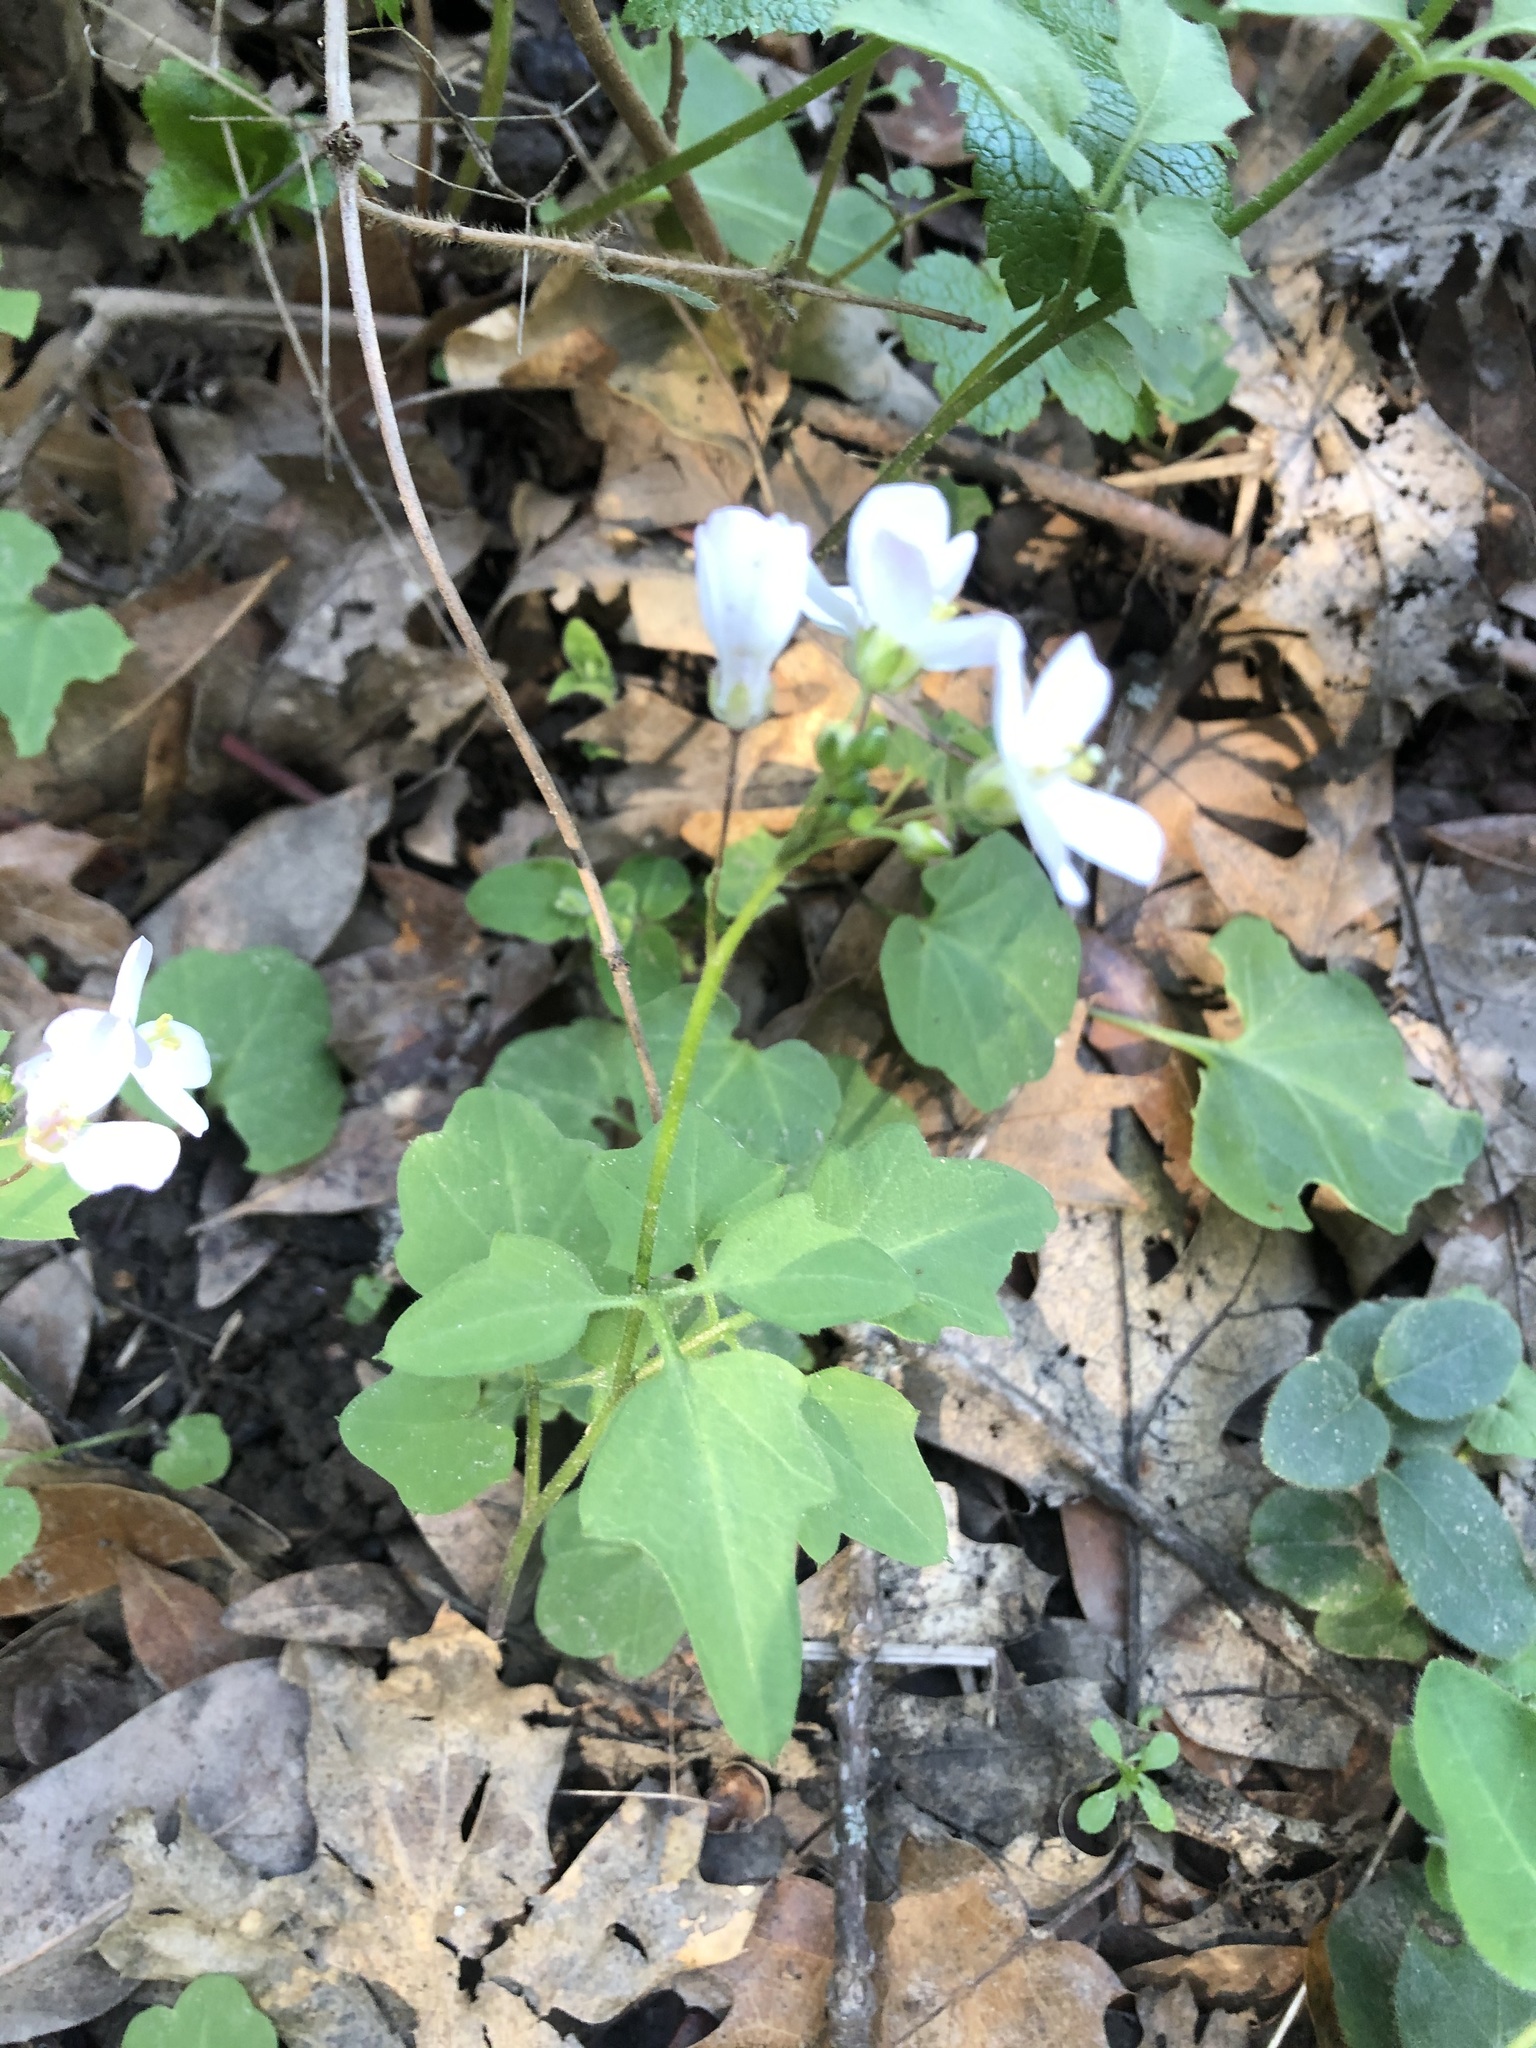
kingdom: Plantae
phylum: Tracheophyta
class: Magnoliopsida
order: Brassicales
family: Brassicaceae
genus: Cardamine
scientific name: Cardamine californica
